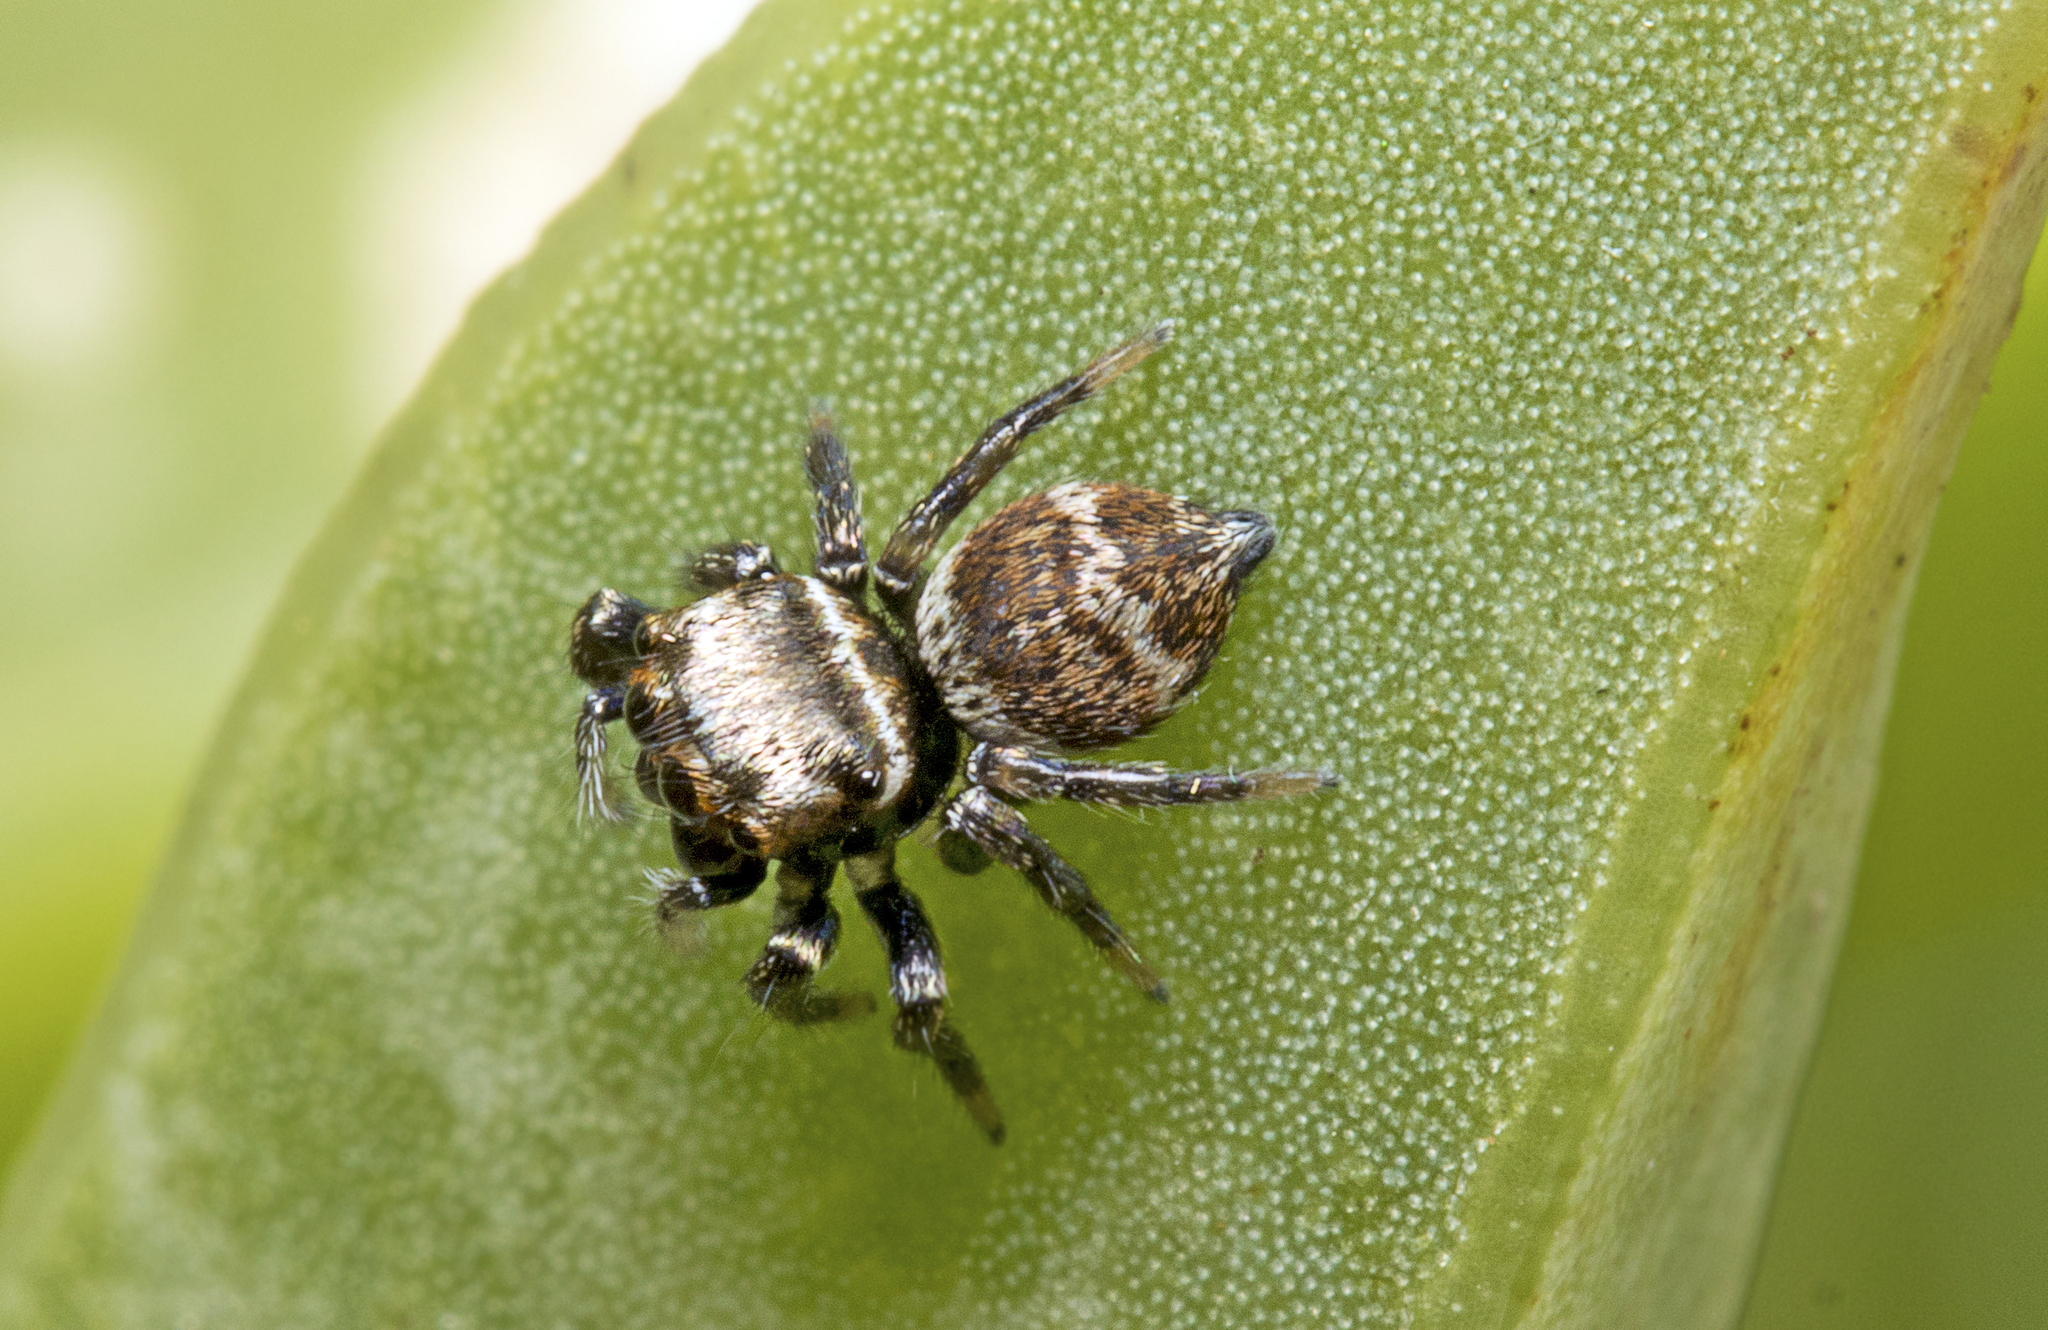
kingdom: Animalia
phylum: Arthropoda
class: Arachnida
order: Araneae
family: Salticidae
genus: Euryattus
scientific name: Euryattus bleekeri
